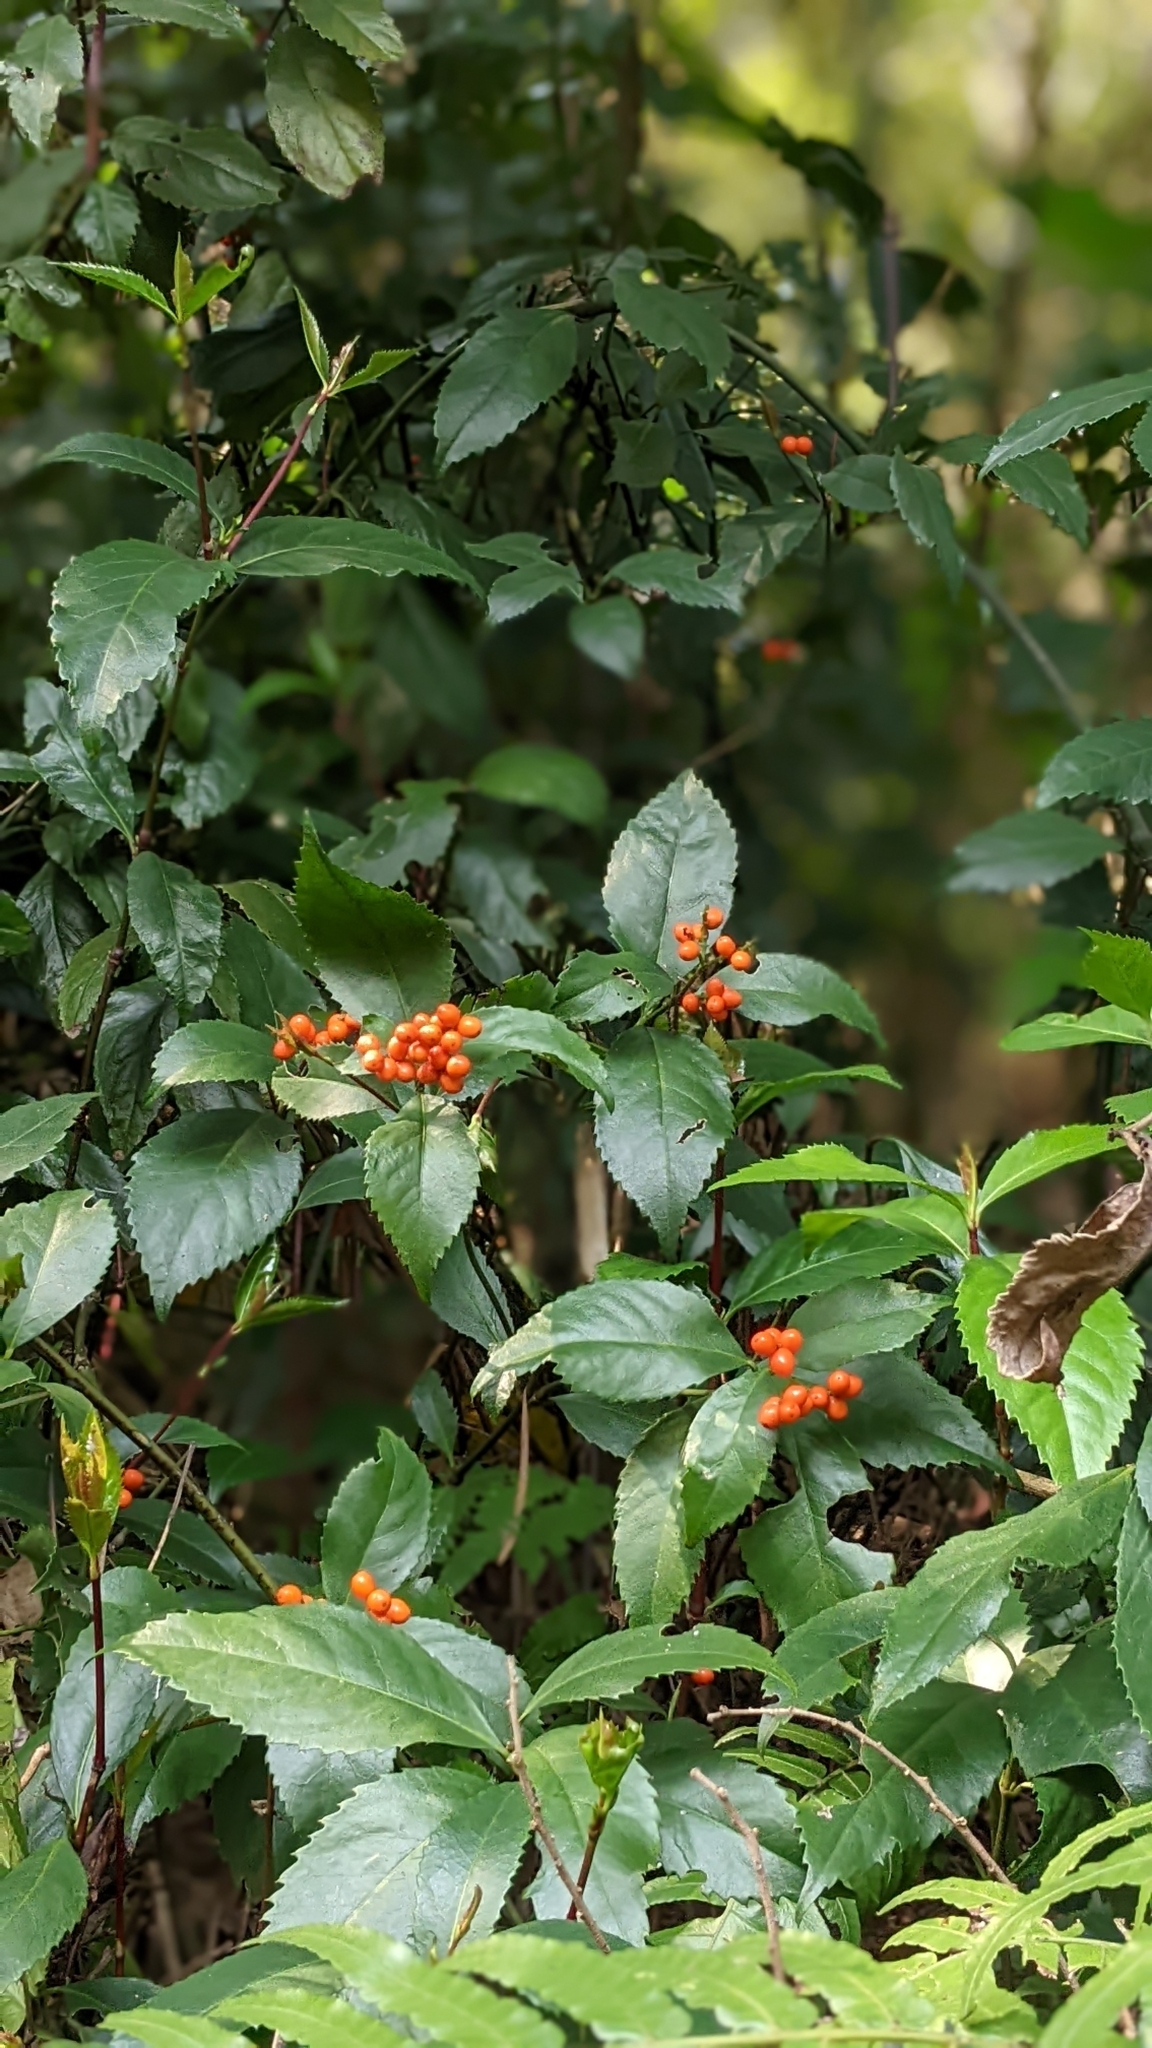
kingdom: Plantae
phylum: Tracheophyta
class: Magnoliopsida
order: Chloranthales
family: Chloranthaceae
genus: Sarcandra
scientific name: Sarcandra glabra
